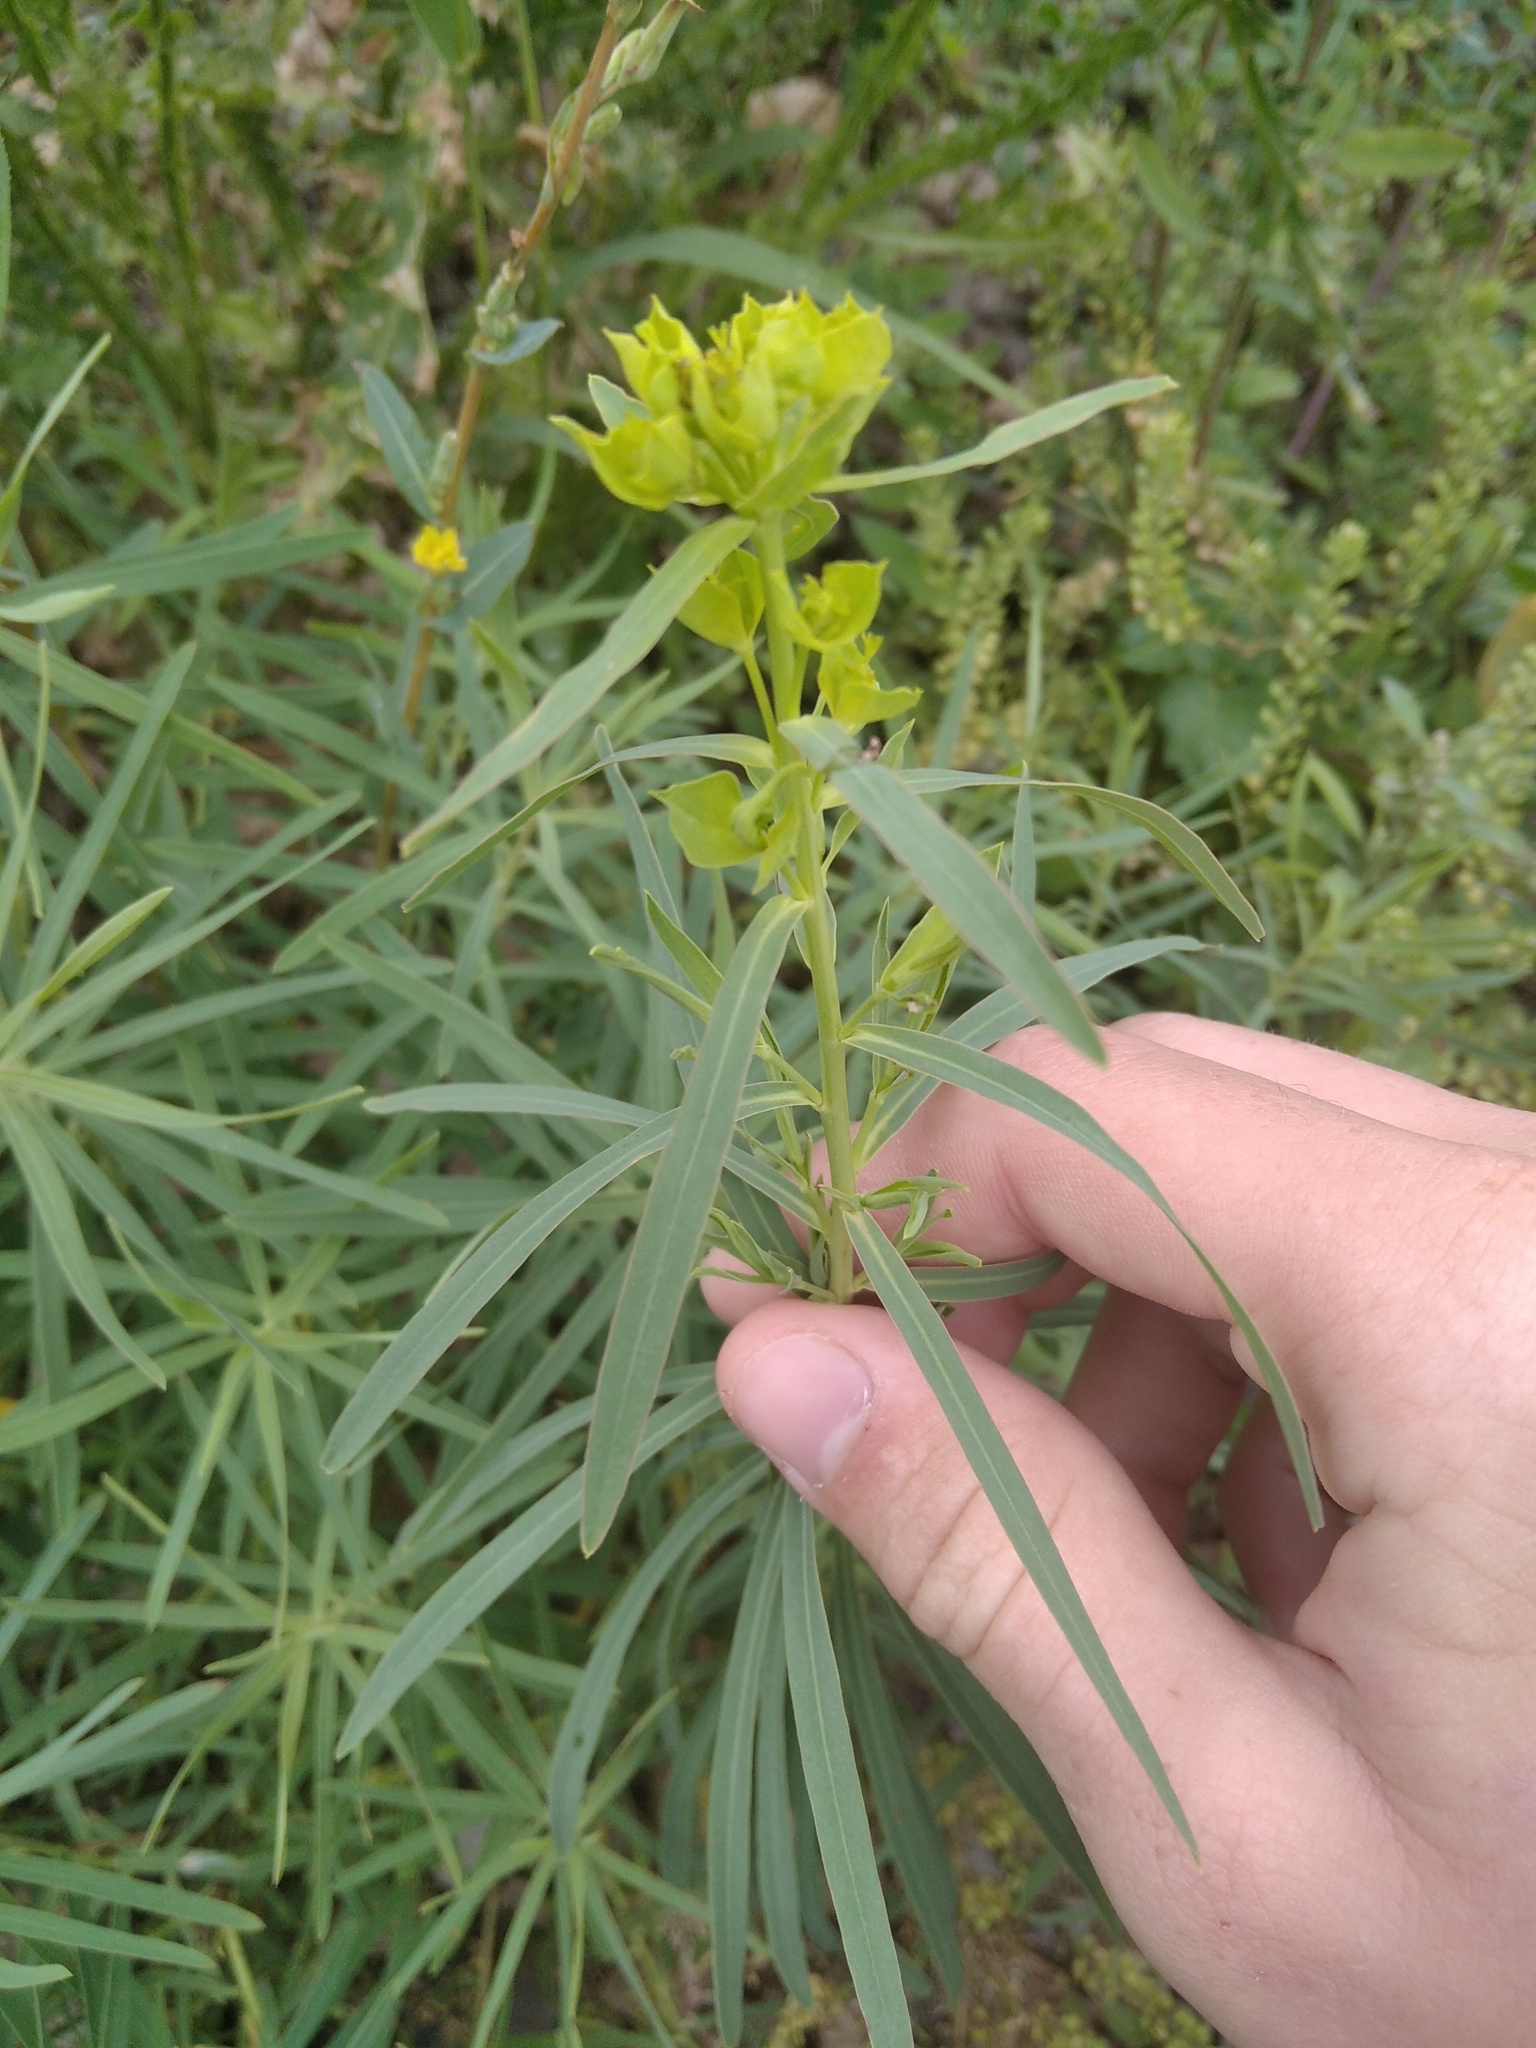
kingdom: Plantae
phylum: Tracheophyta
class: Magnoliopsida
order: Malpighiales
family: Euphorbiaceae
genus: Euphorbia
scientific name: Euphorbia virgata
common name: Leafy spurge
